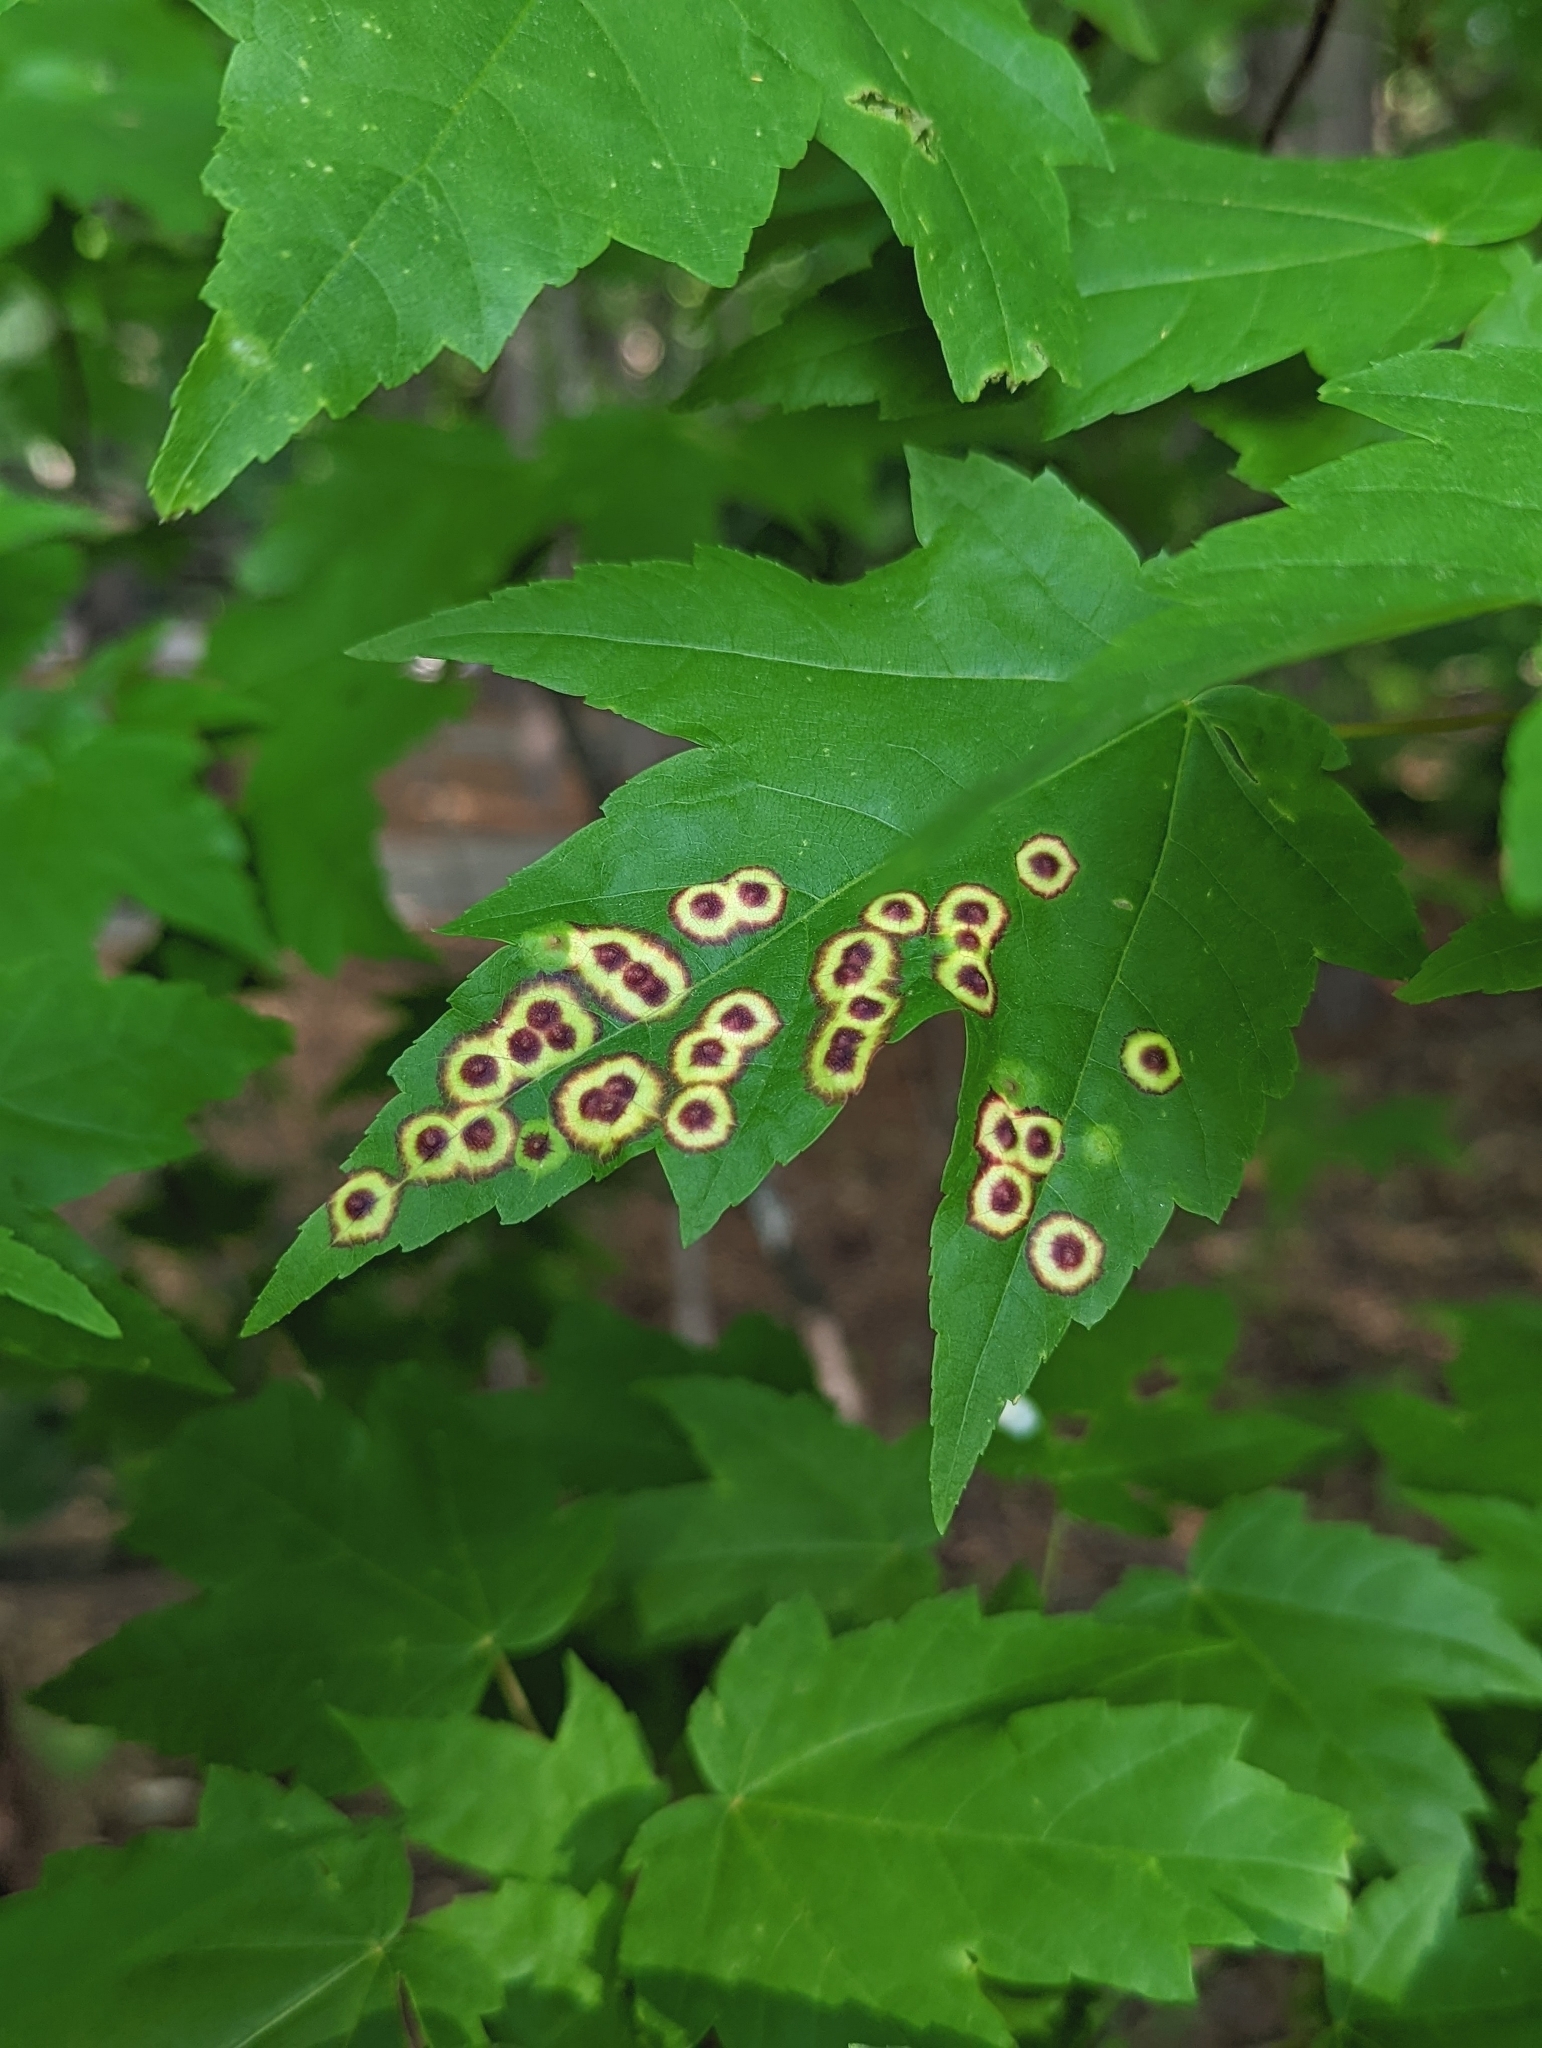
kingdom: Animalia
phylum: Arthropoda
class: Insecta
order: Diptera
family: Cecidomyiidae
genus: Acericecis
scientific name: Acericecis ocellaris
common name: Ocellate gall midge
